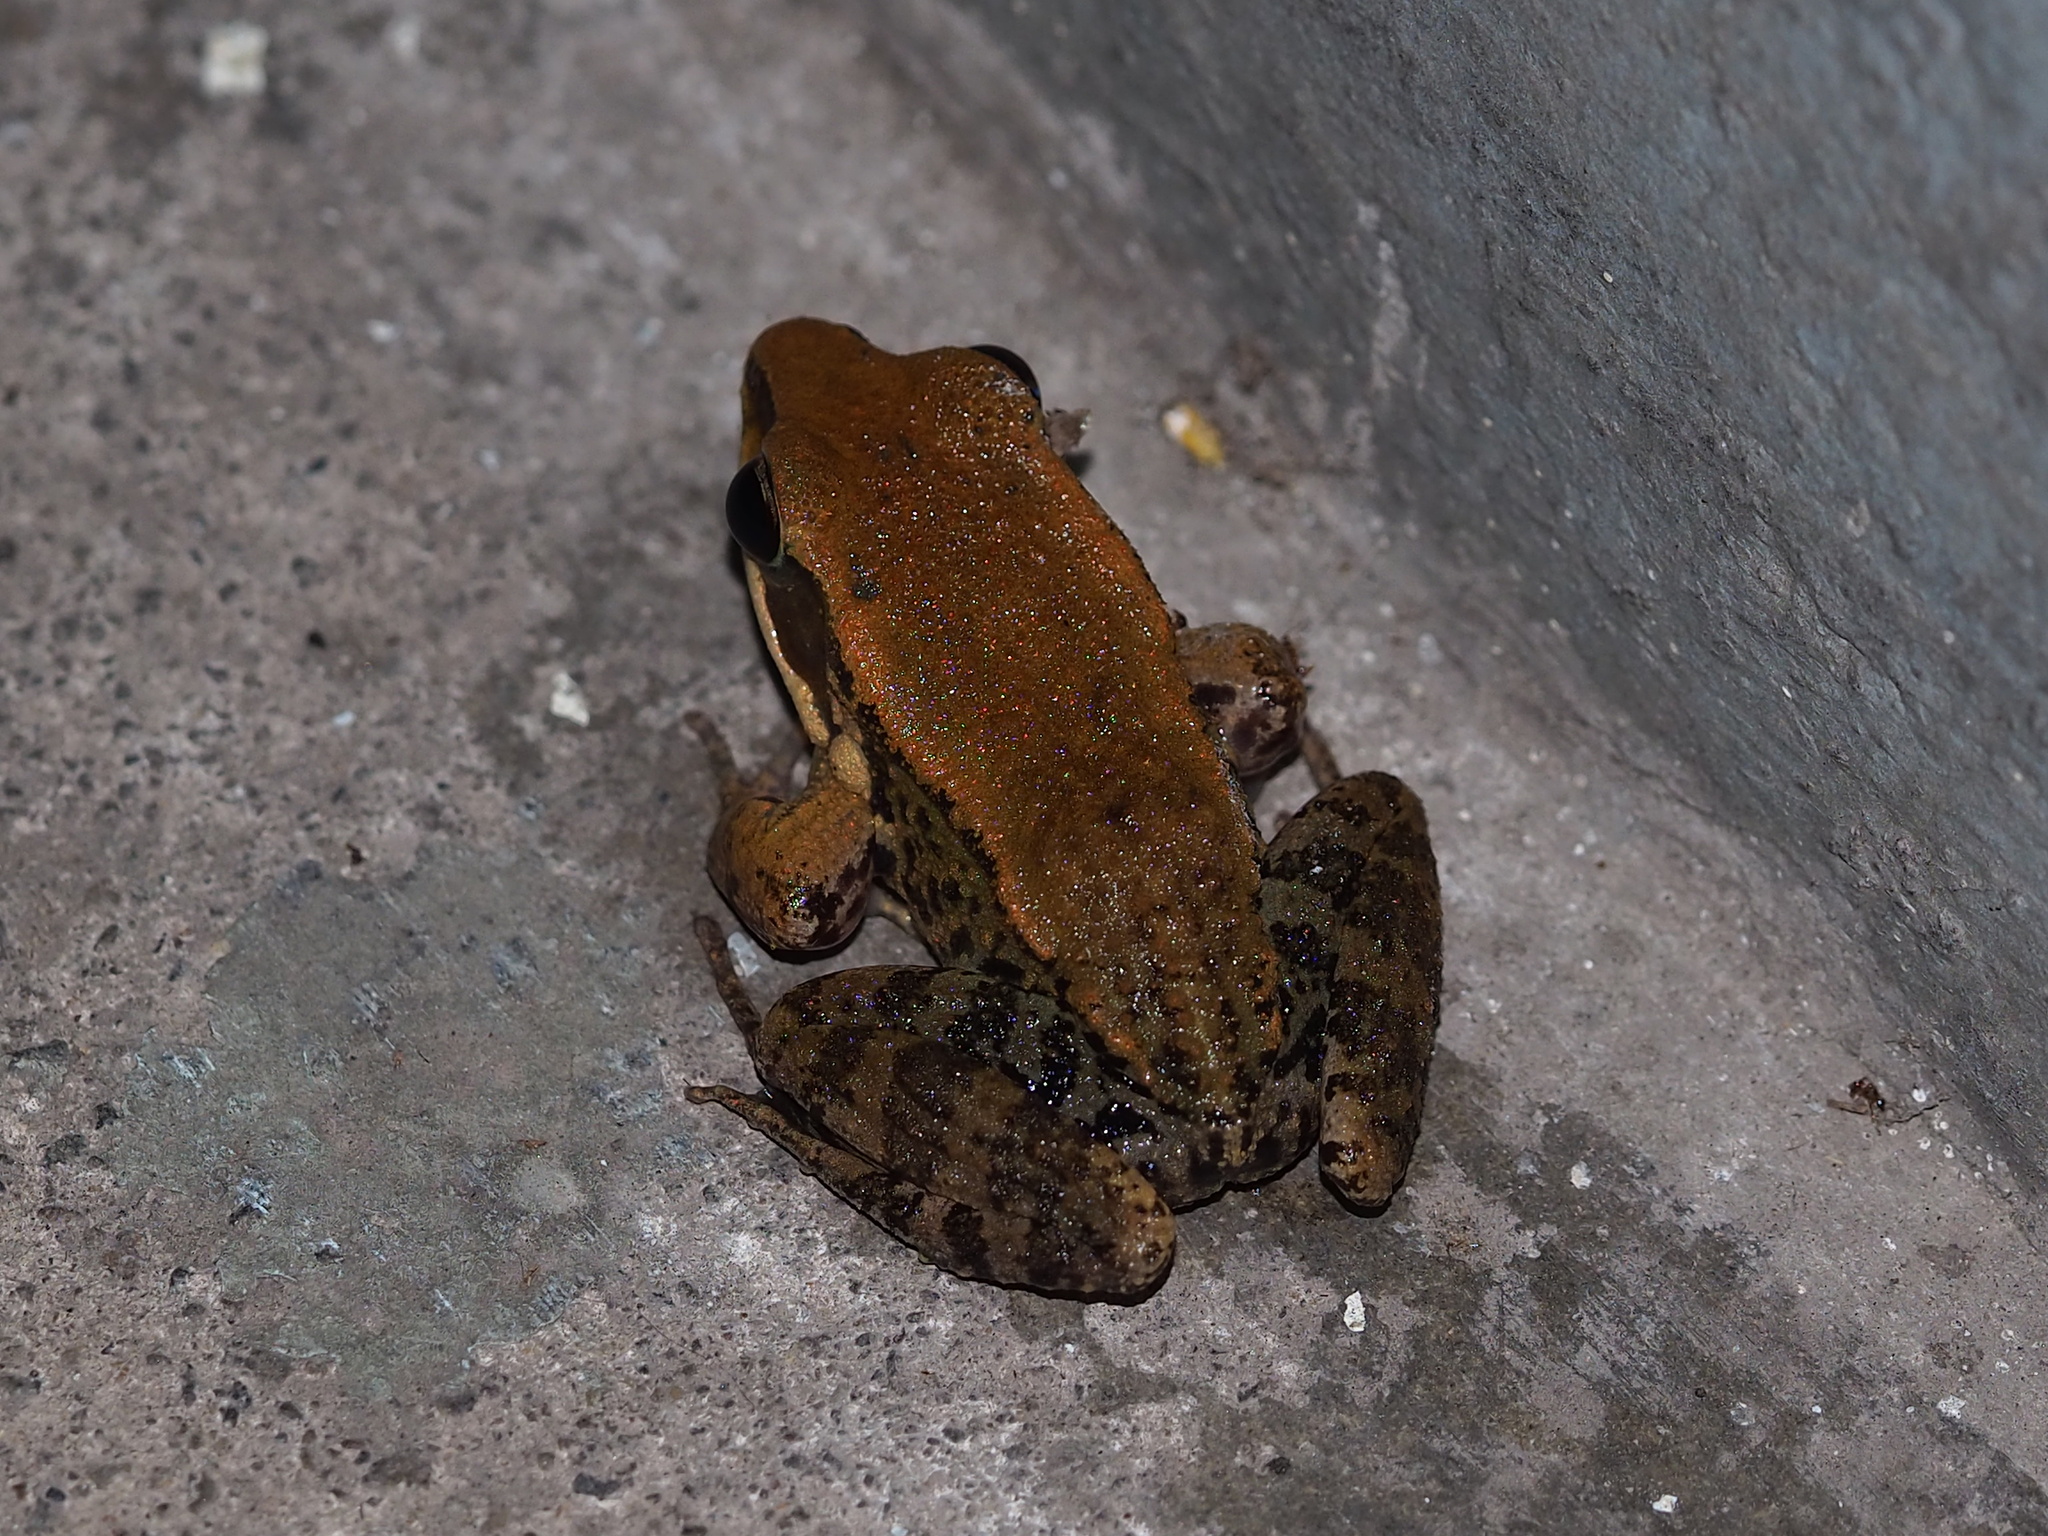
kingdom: Animalia
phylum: Chordata
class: Amphibia
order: Anura
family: Ranidae
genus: Hylarana
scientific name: Hylarana latouchii
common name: Broad-folded frog
